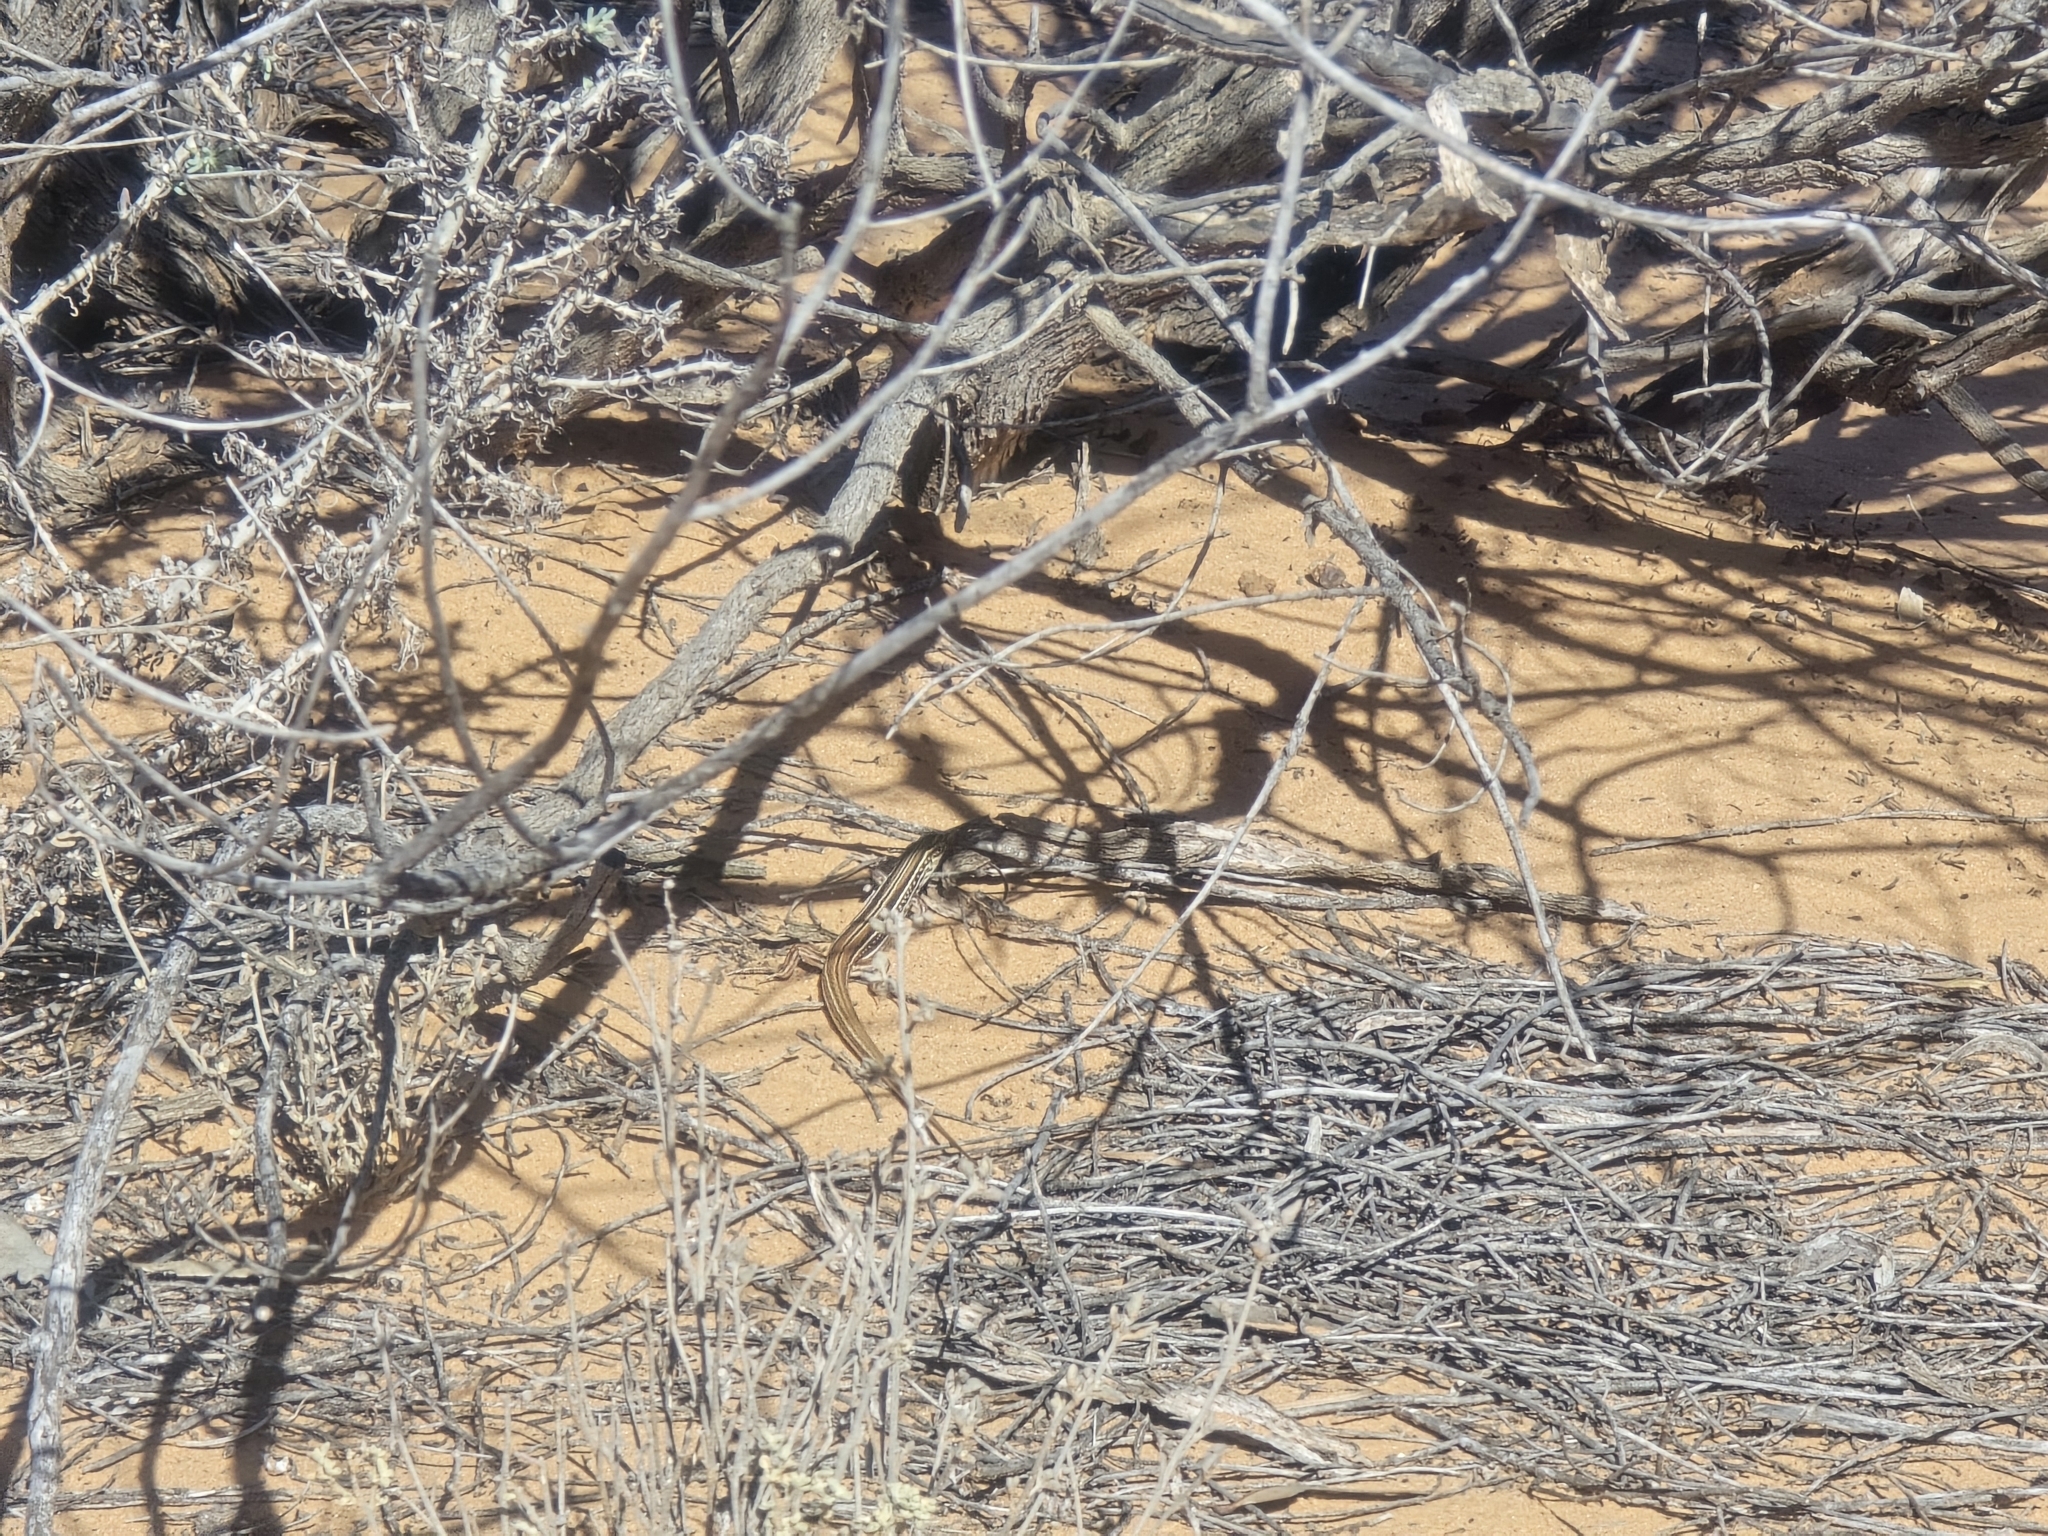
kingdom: Animalia
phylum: Chordata
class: Squamata
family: Scincidae
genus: Ctenotus
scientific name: Ctenotus regius
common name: Pale-rumped ctenotus
